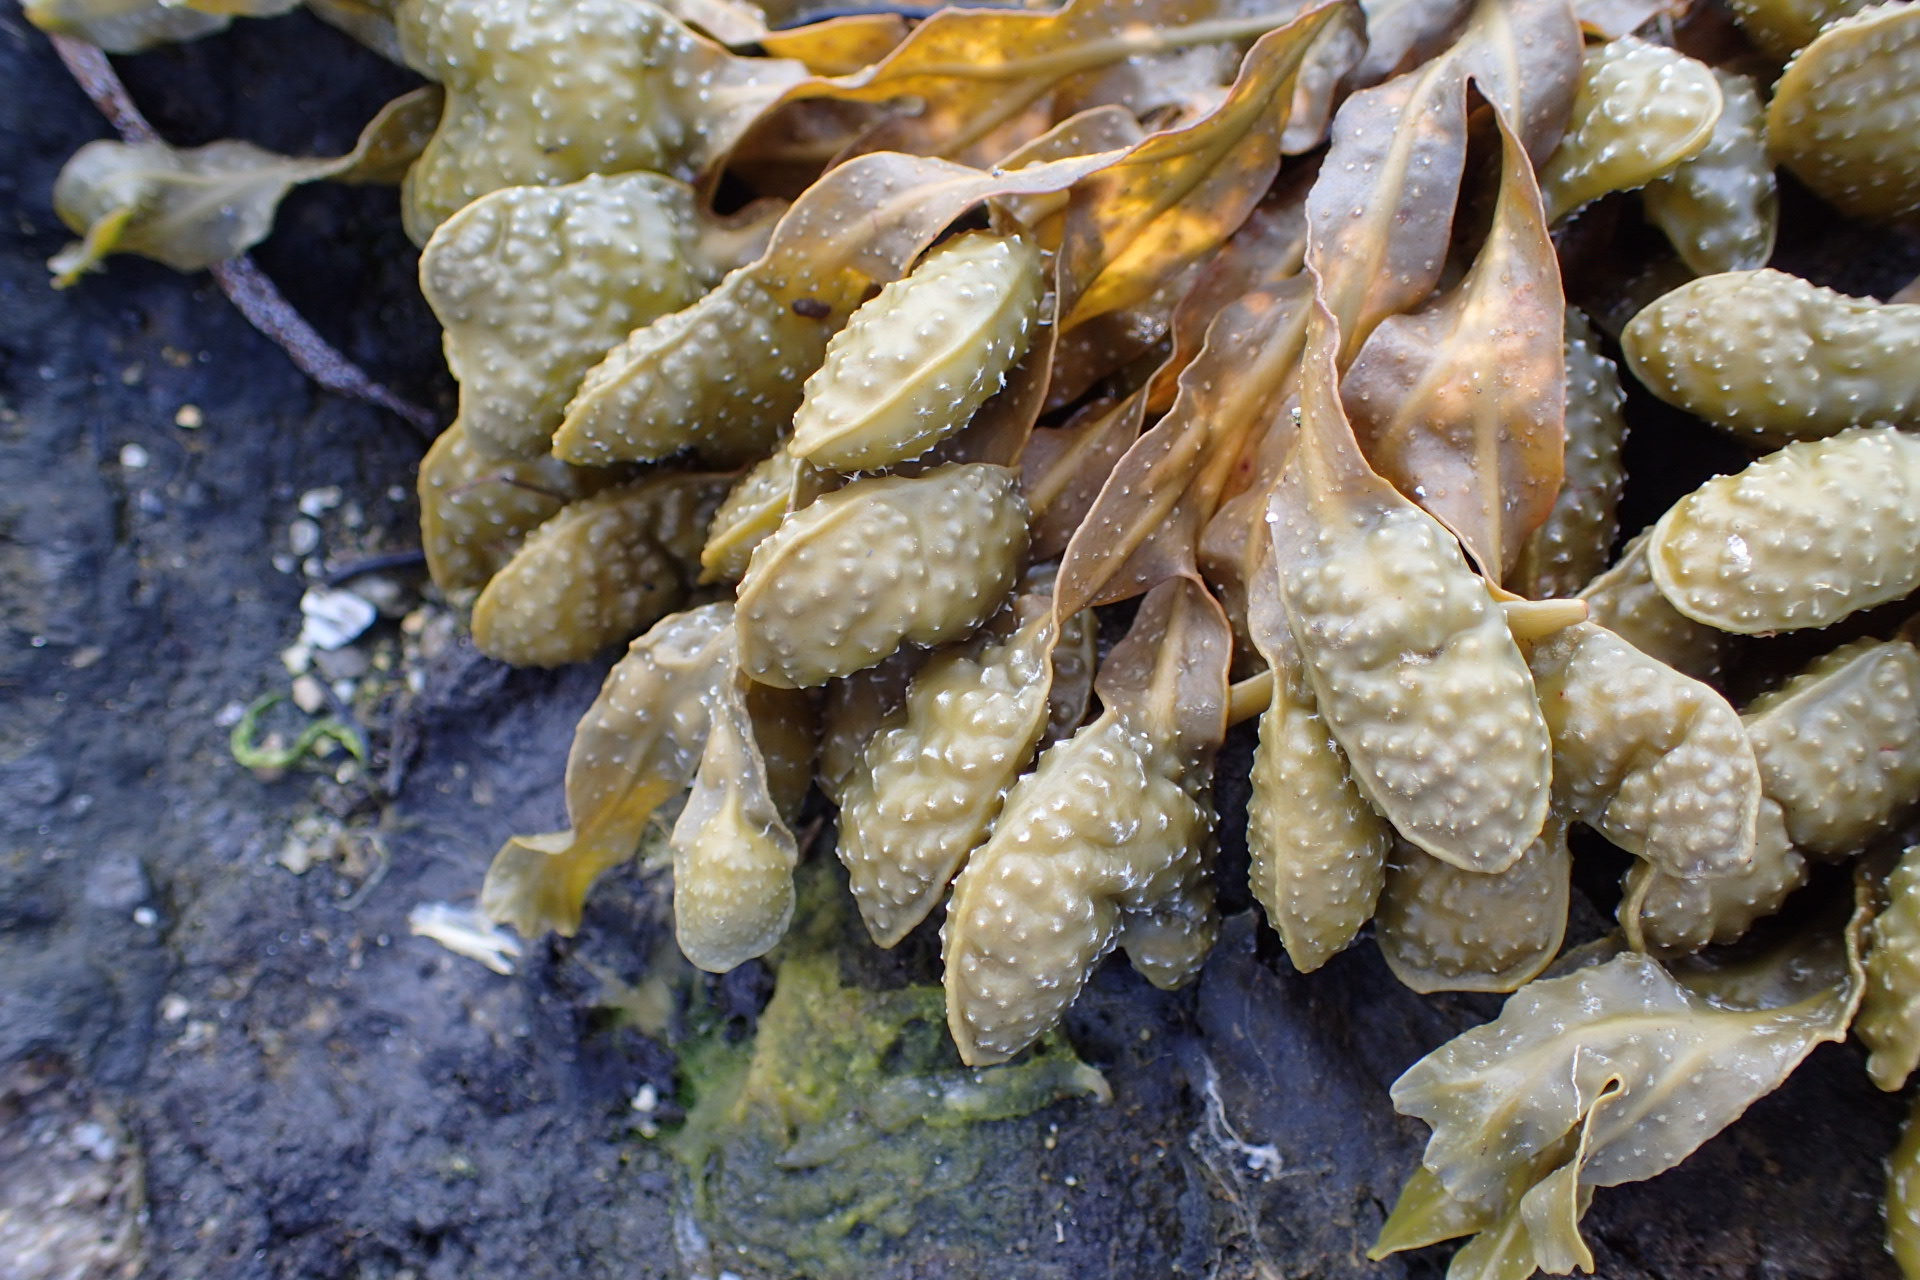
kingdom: Chromista
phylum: Ochrophyta
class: Phaeophyceae
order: Fucales
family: Fucaceae
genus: Fucus
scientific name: Fucus spiralis
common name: Spiral wrack
